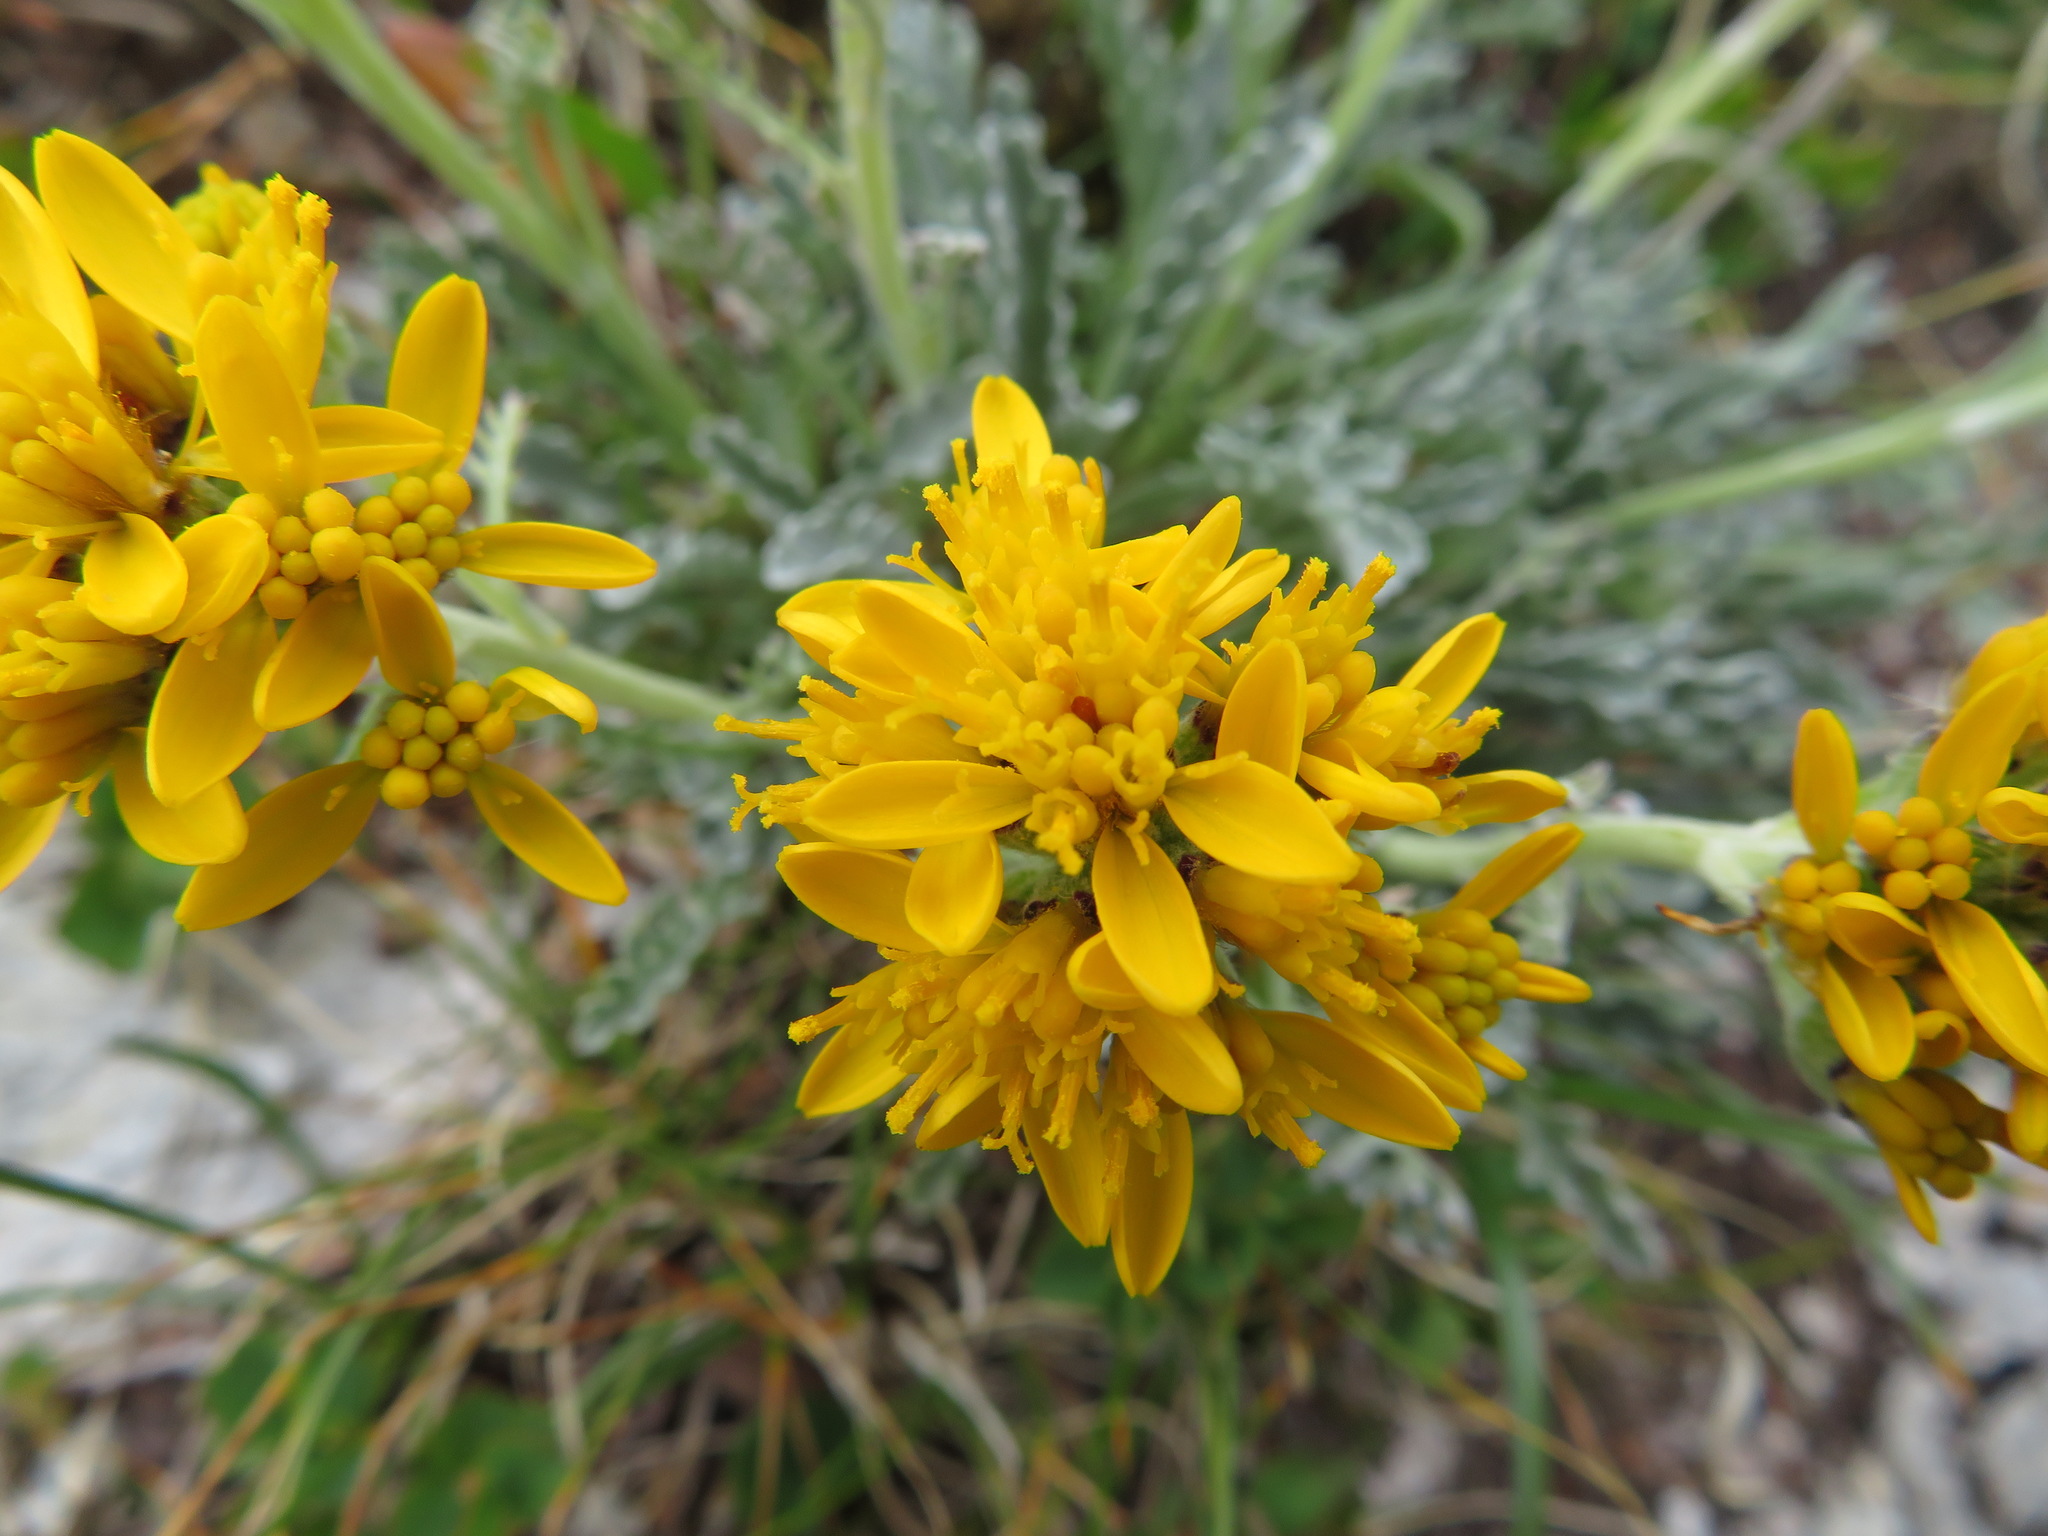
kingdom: Plantae
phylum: Tracheophyta
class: Magnoliopsida
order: Asterales
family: Asteraceae
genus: Jacobaea
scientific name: Jacobaea insubrica
